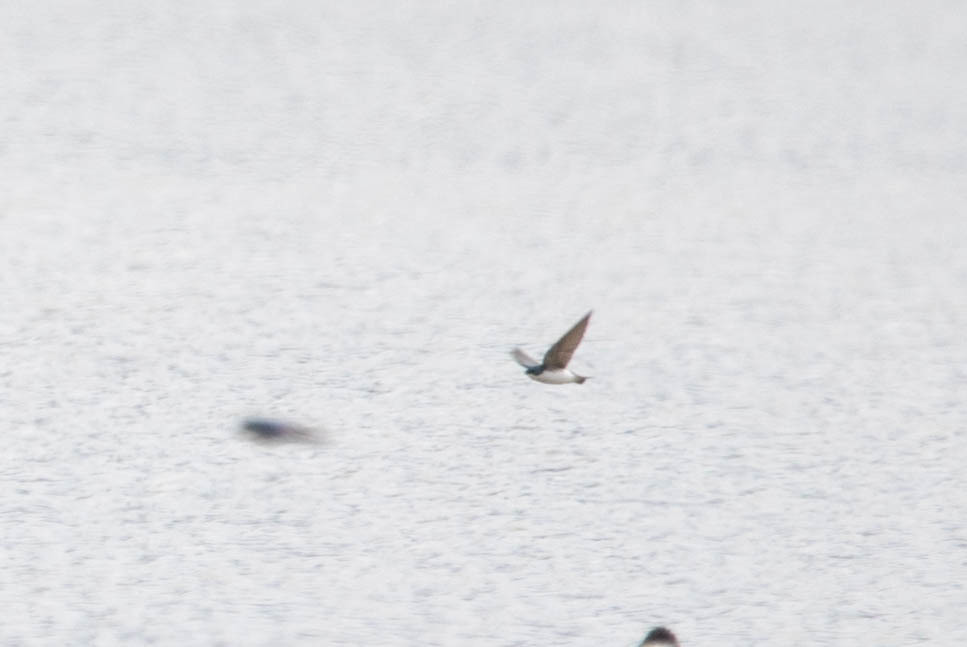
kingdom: Animalia
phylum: Chordata
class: Aves
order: Passeriformes
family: Hirundinidae
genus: Tachycineta
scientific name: Tachycineta bicolor
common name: Tree swallow
